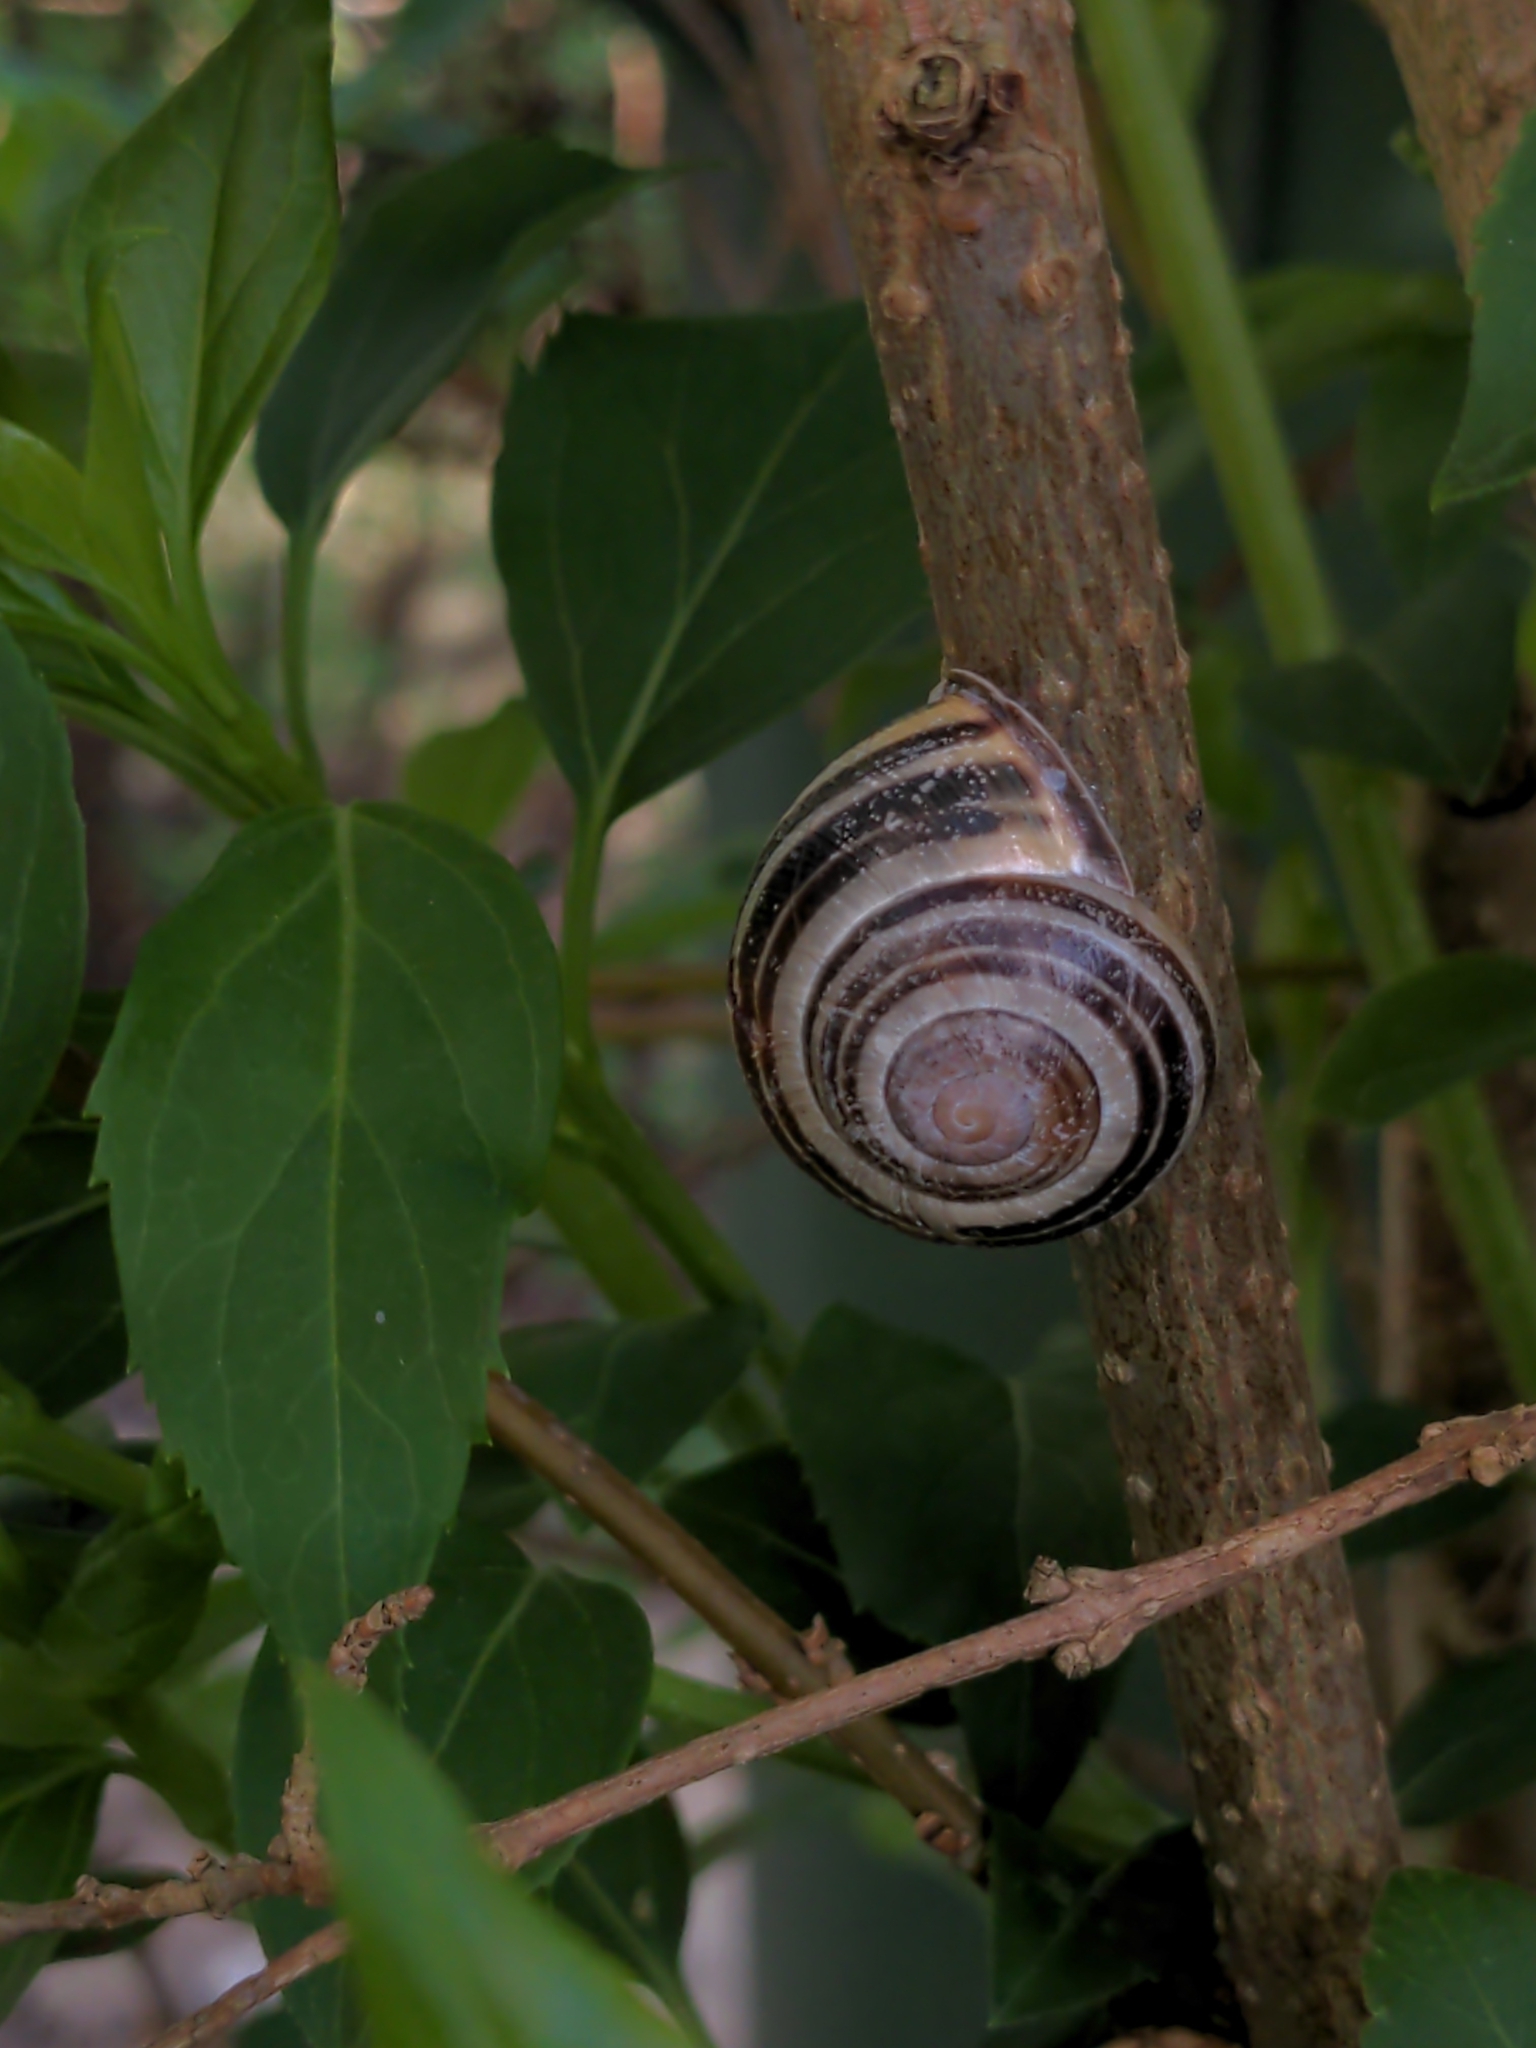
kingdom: Animalia
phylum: Mollusca
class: Gastropoda
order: Stylommatophora
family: Helicidae
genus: Cepaea
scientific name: Cepaea nemoralis
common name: Grovesnail
